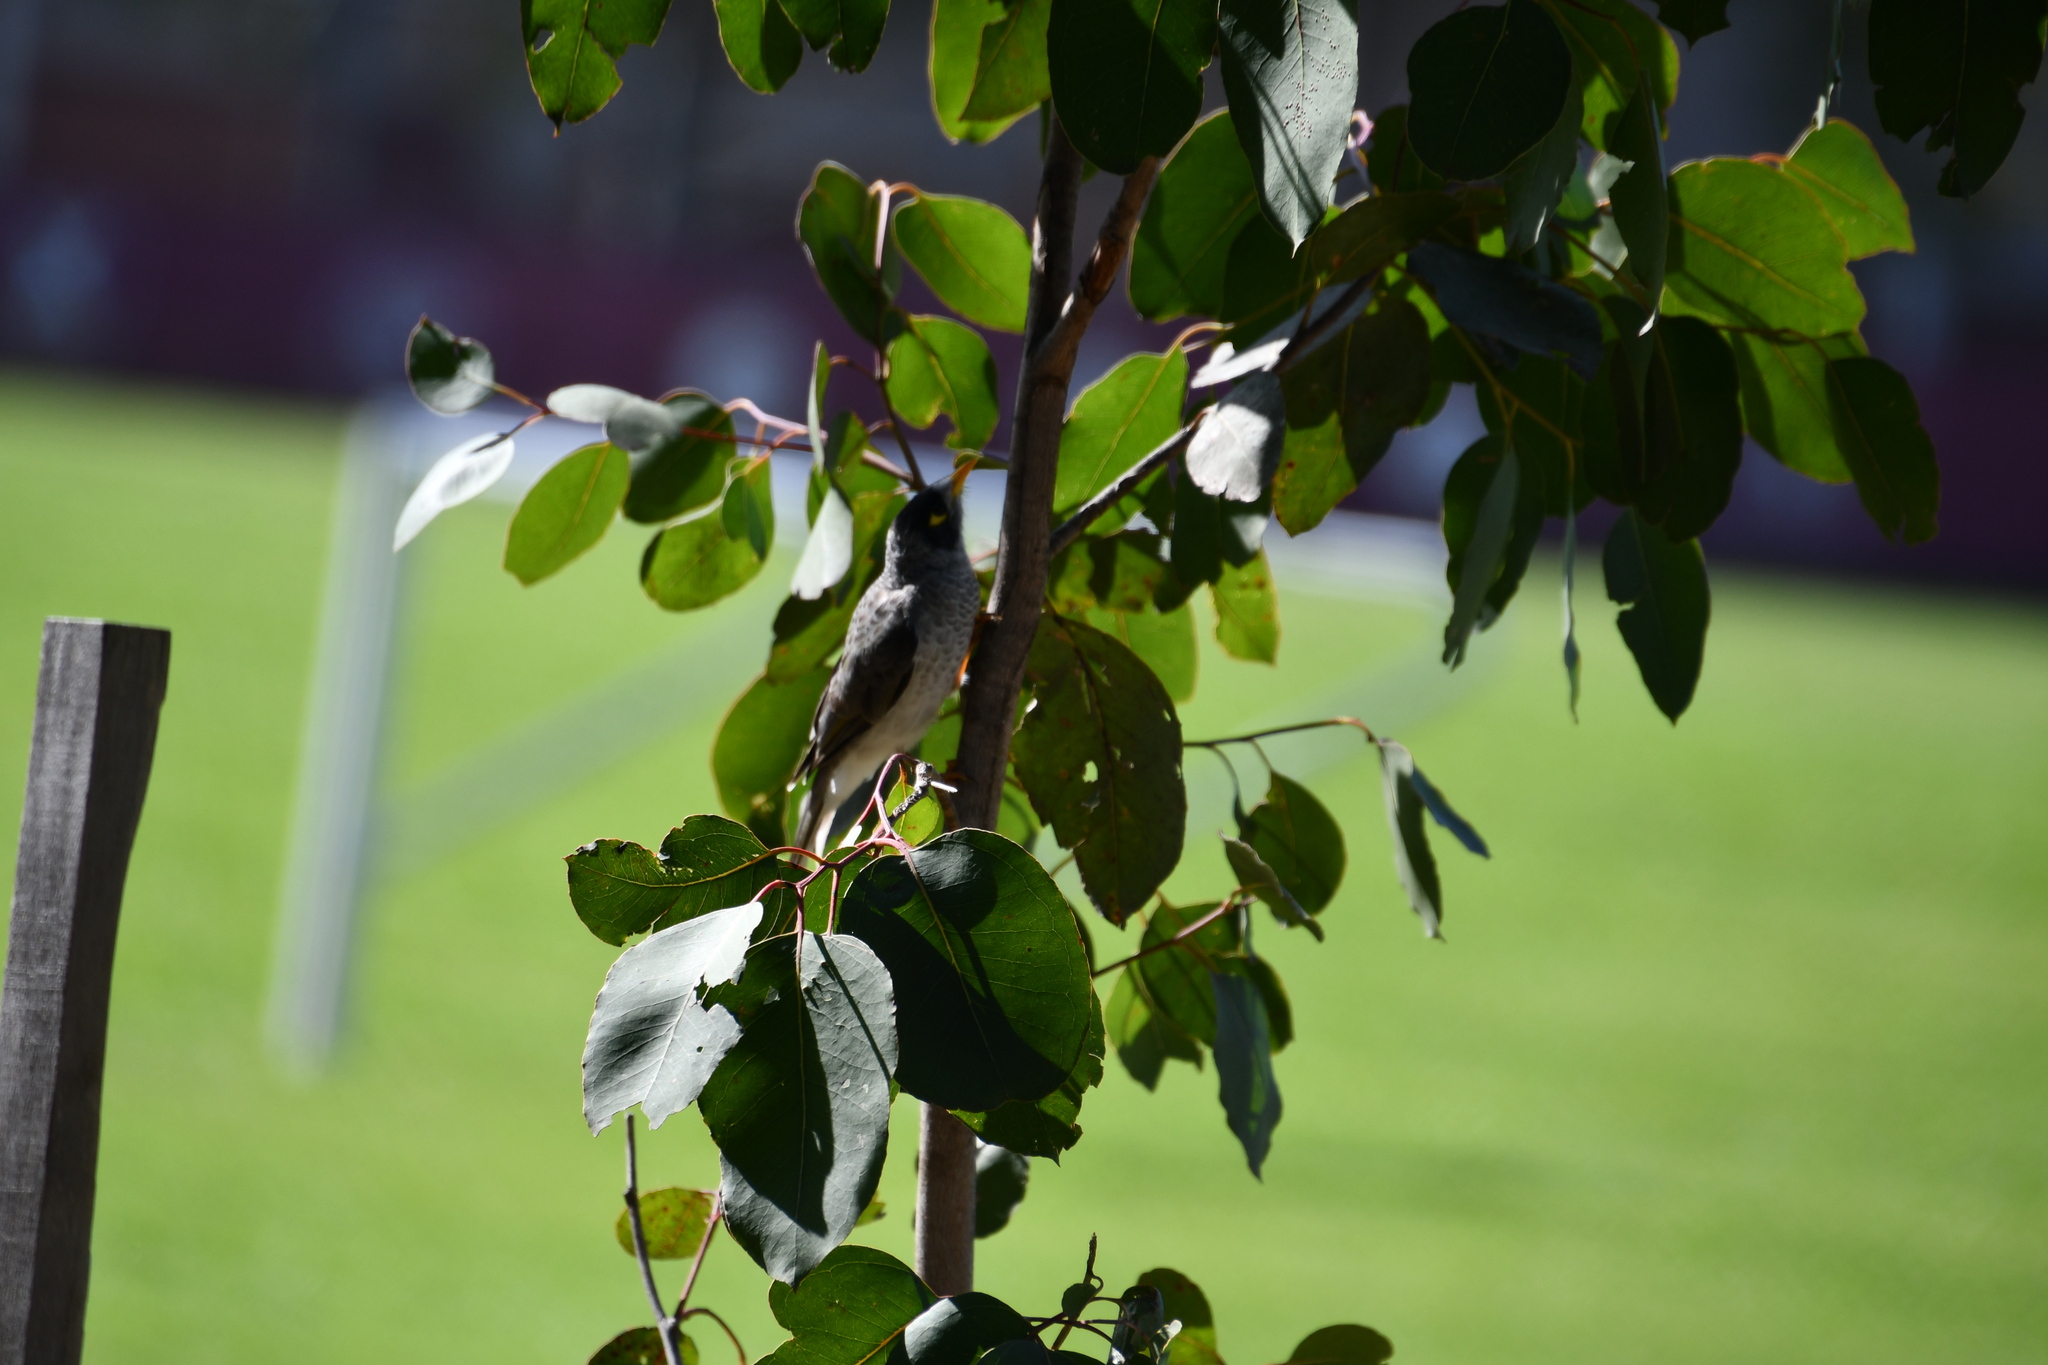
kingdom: Animalia
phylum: Chordata
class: Aves
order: Passeriformes
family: Meliphagidae
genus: Manorina
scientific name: Manorina melanocephala
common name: Noisy miner
